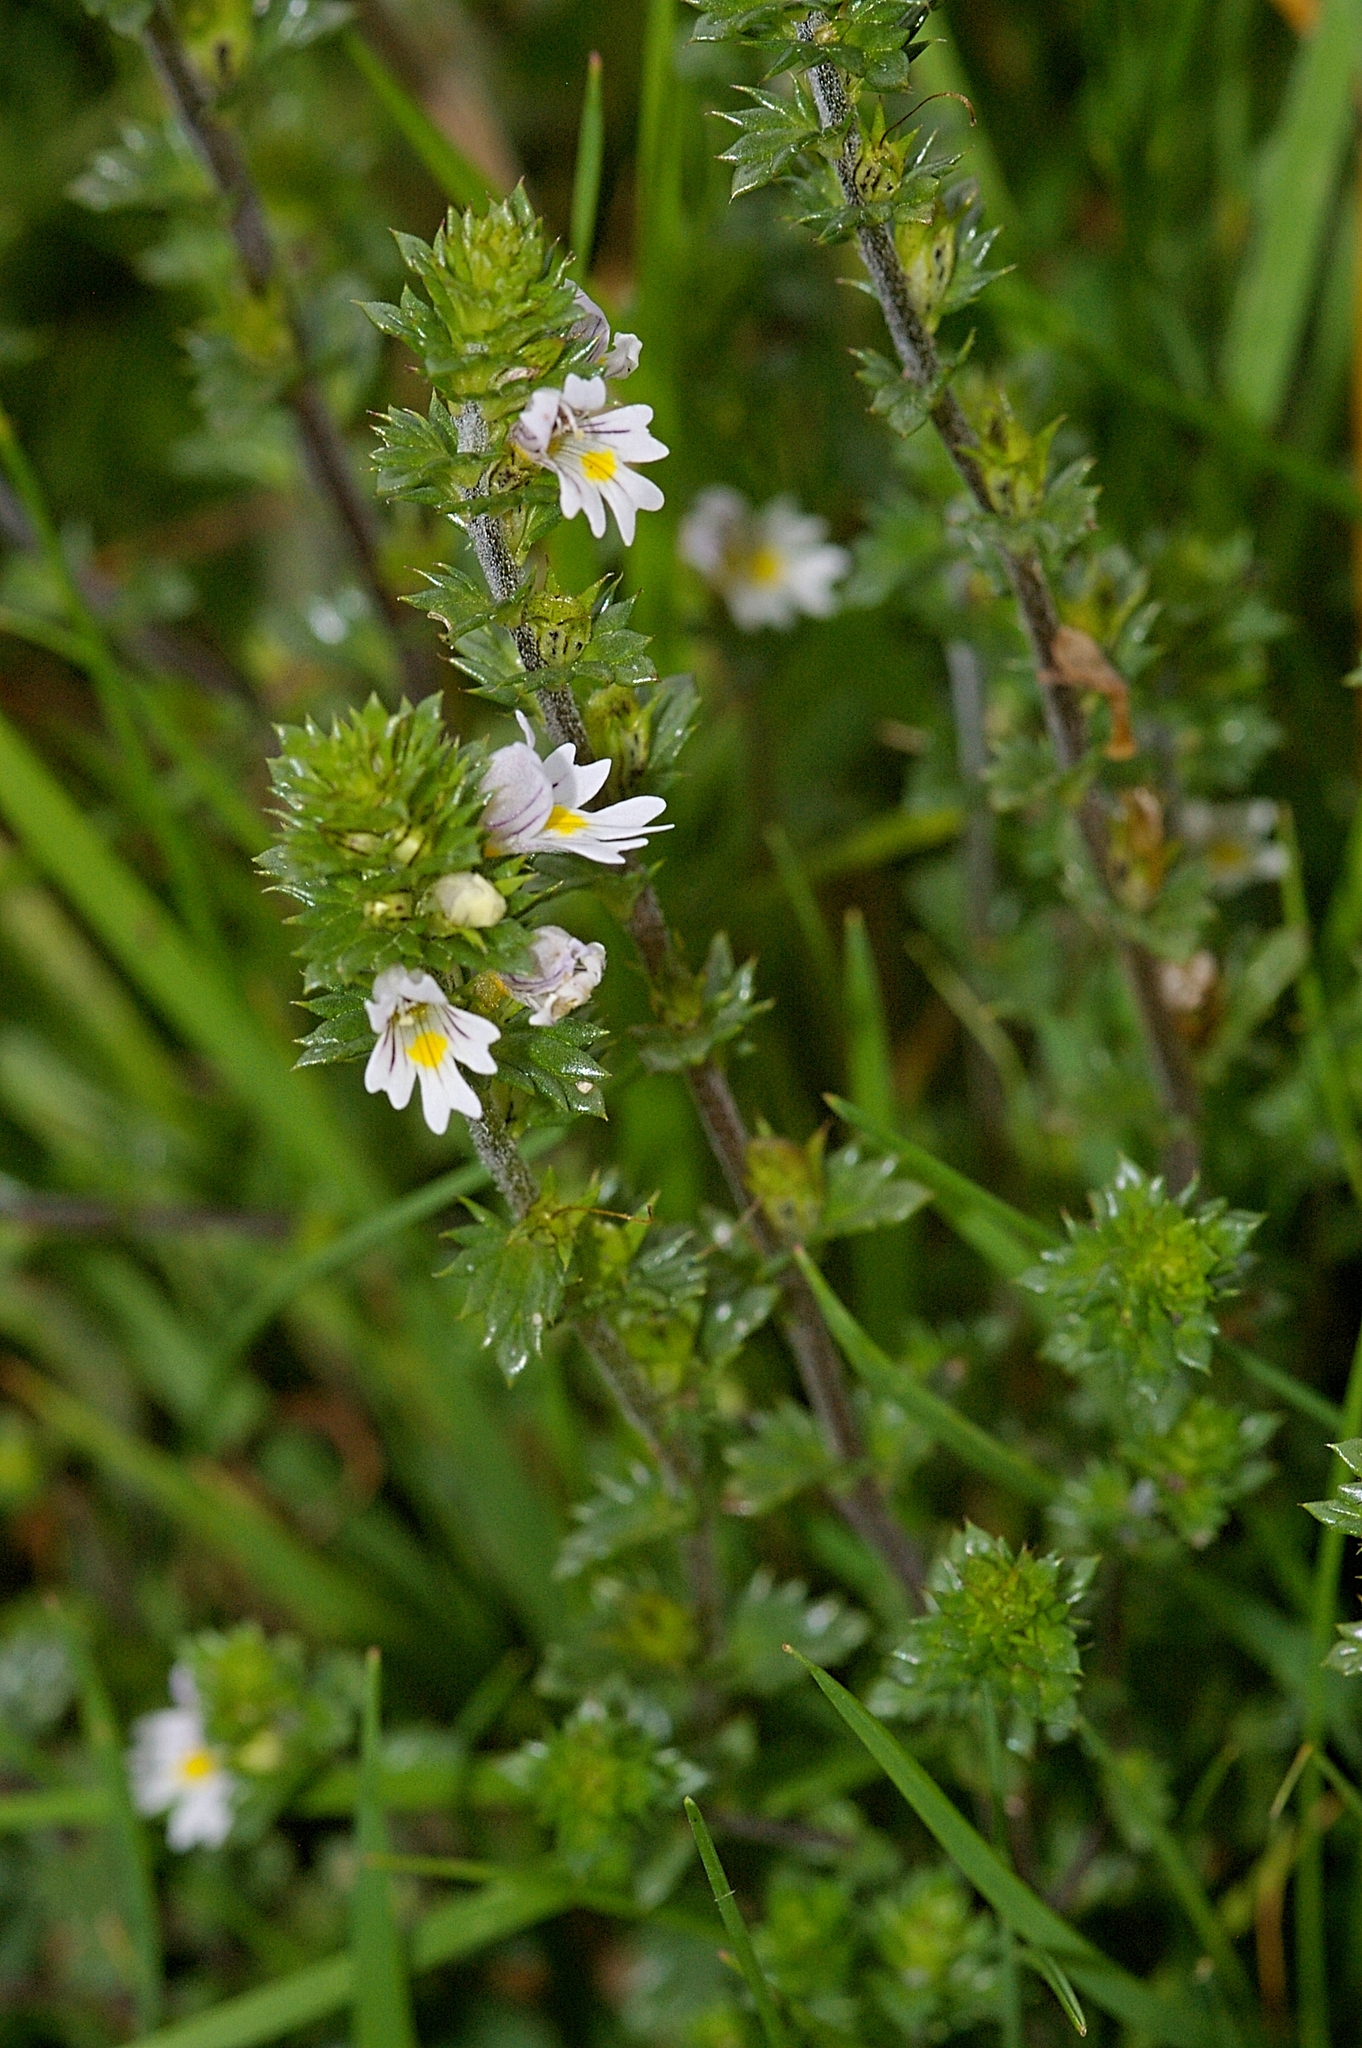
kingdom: Plantae
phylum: Tracheophyta
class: Magnoliopsida
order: Lamiales
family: Orobanchaceae
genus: Euphrasia
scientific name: Euphrasia nemorosa
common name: Common eyebright
